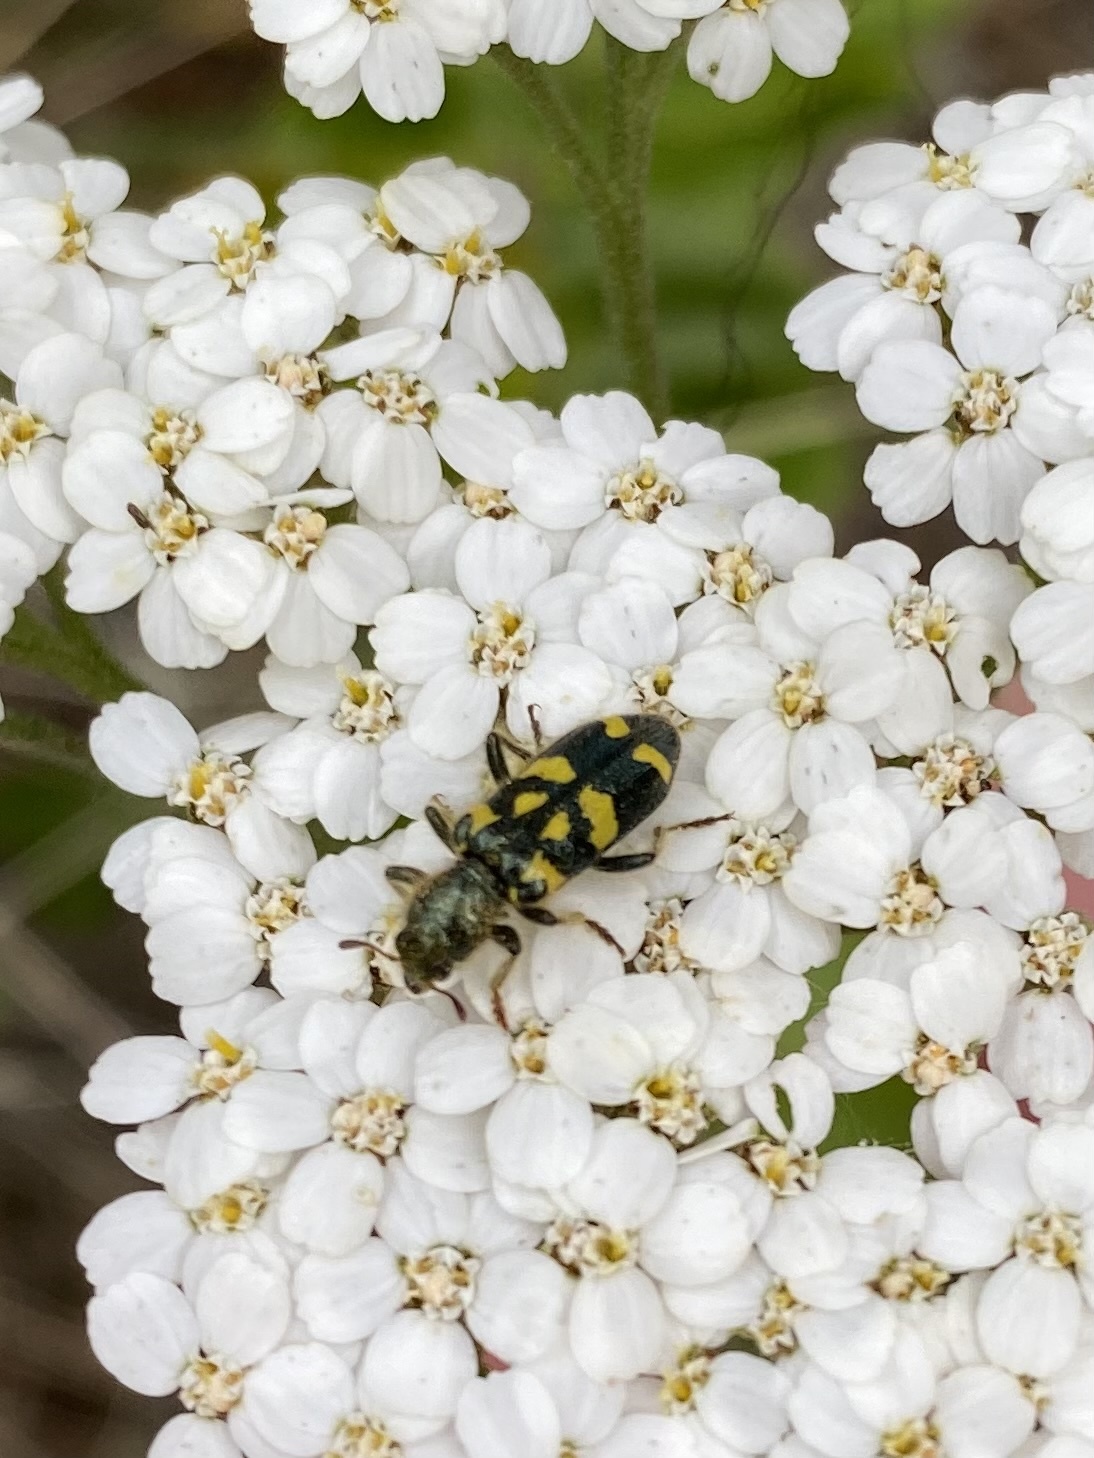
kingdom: Animalia
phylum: Arthropoda
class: Insecta
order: Coleoptera
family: Cleridae
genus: Trichodes
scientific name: Trichodes ornatus
